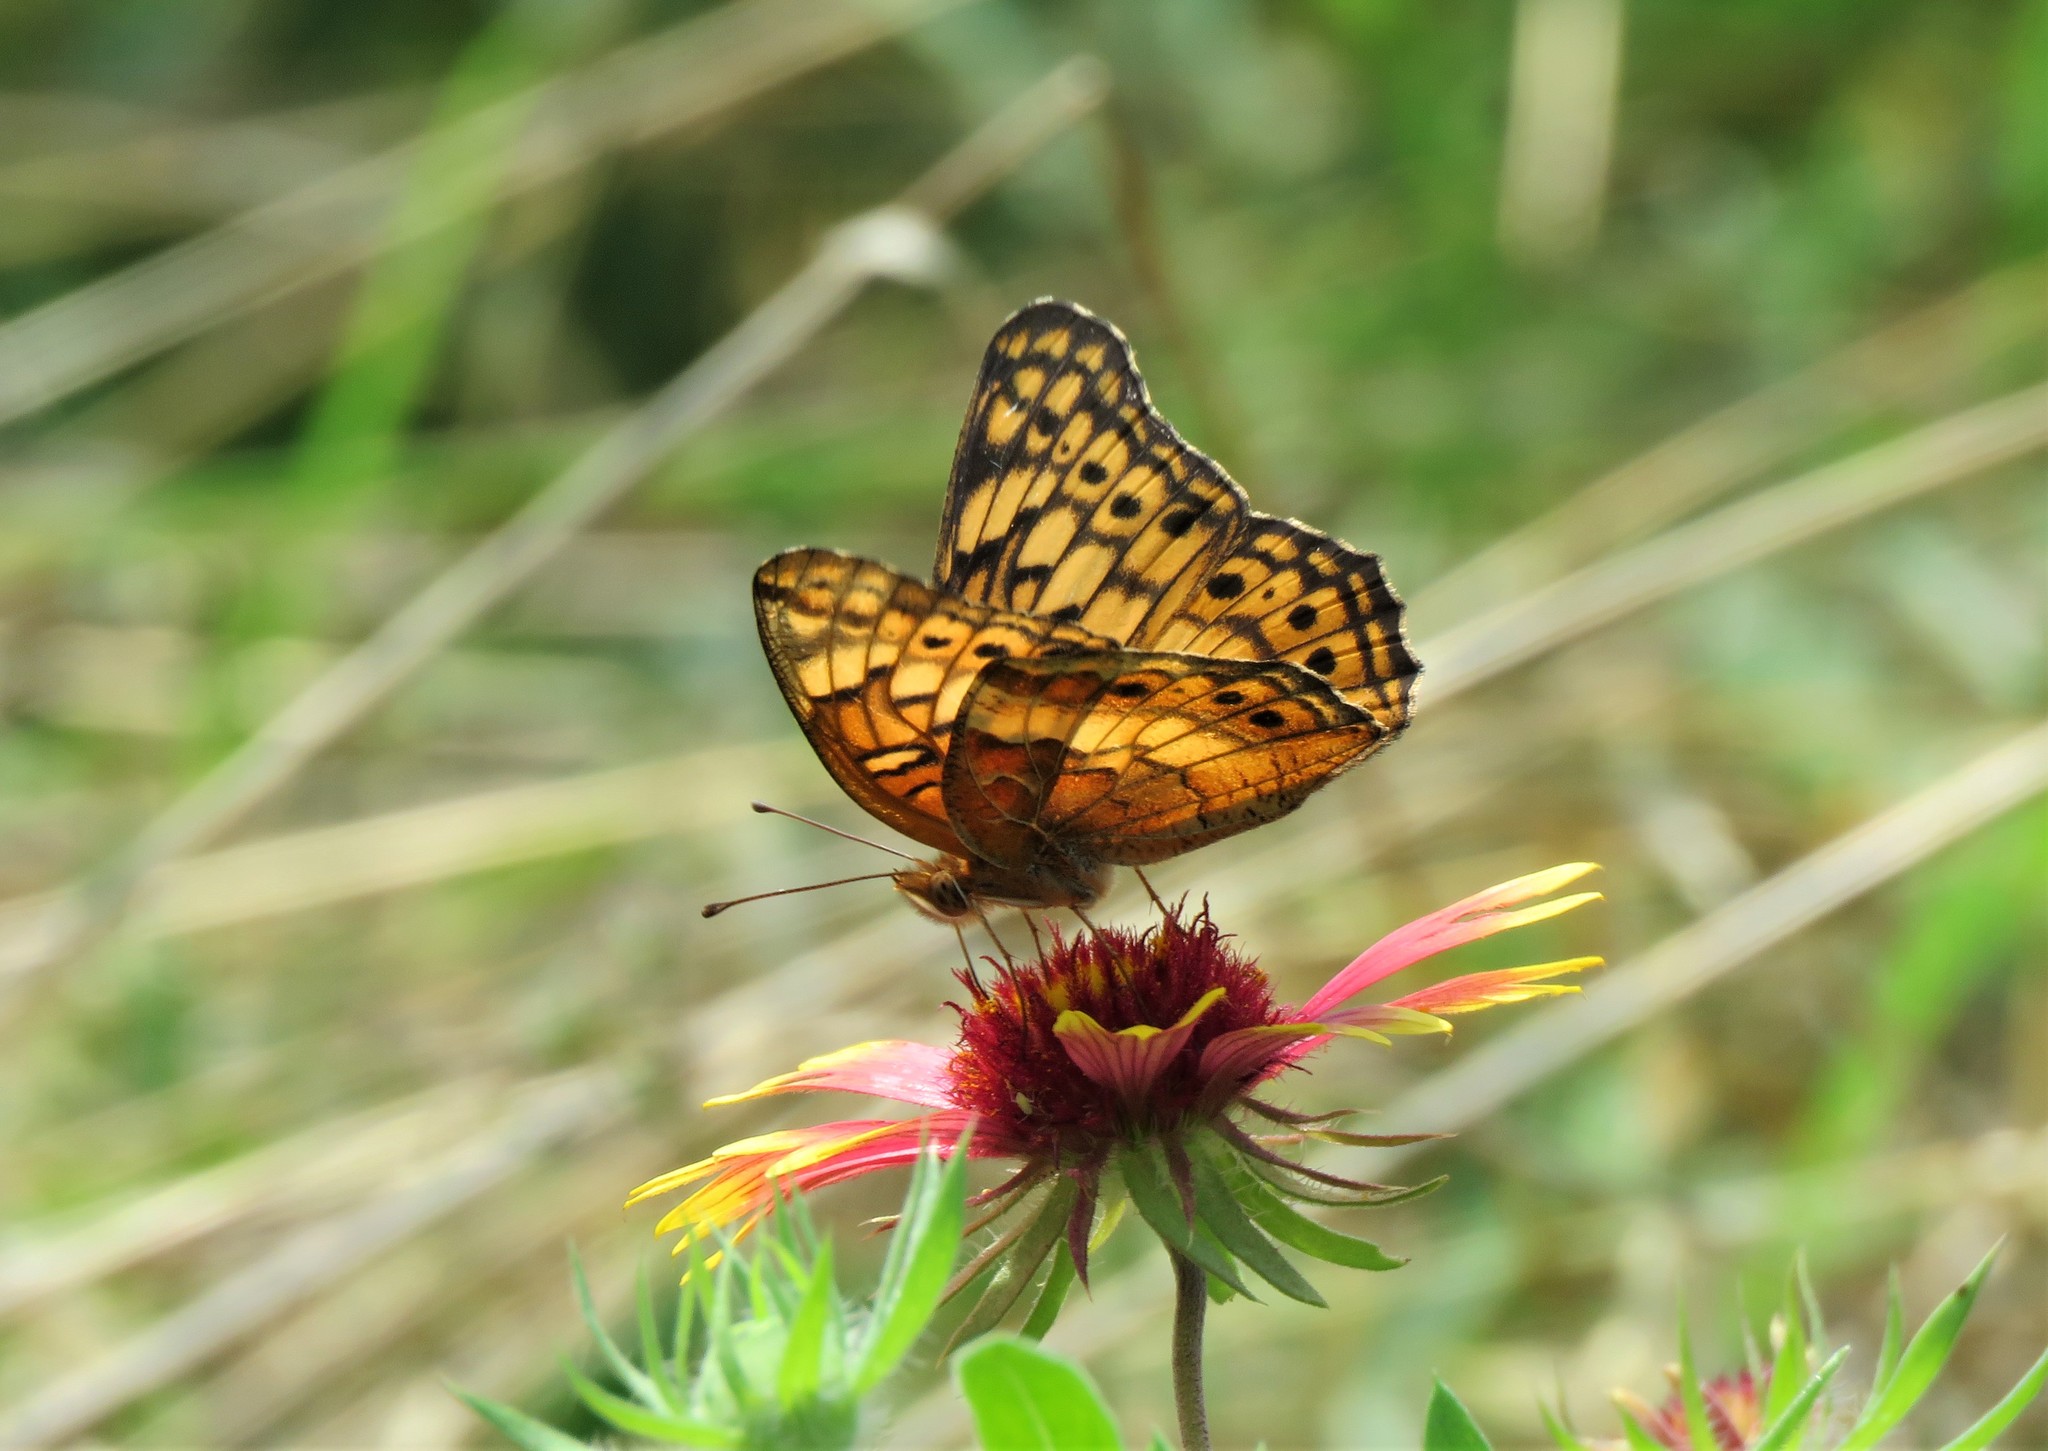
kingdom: Animalia
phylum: Arthropoda
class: Insecta
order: Lepidoptera
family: Nymphalidae
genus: Euptoieta
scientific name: Euptoieta claudia
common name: Variegated fritillary
